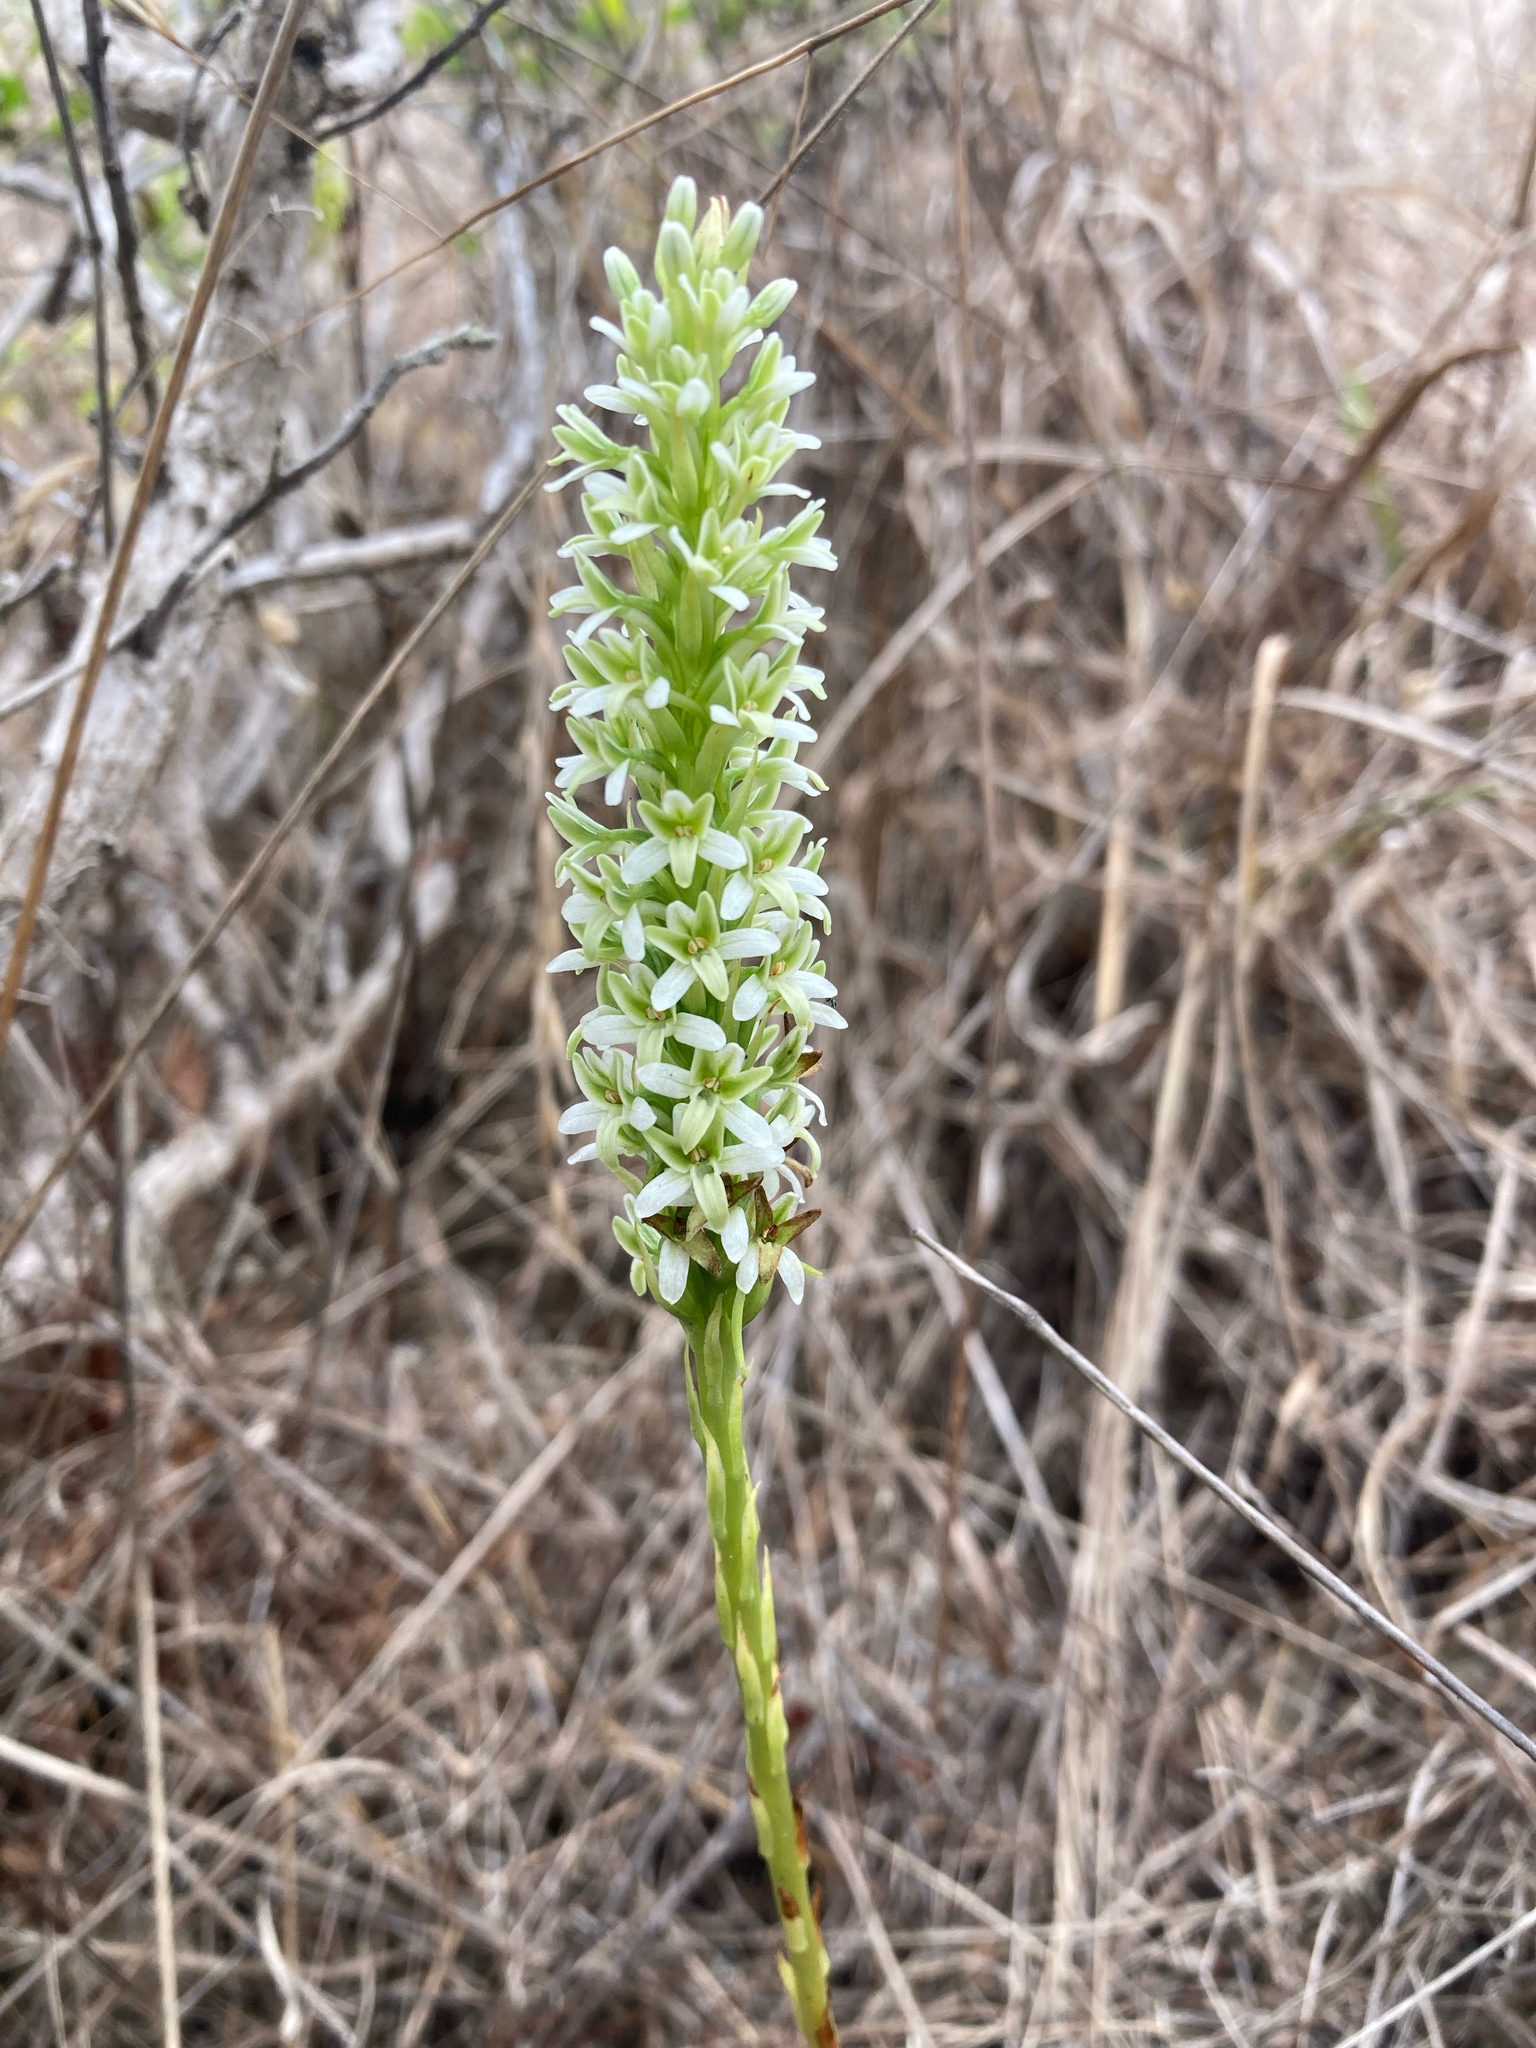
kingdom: Plantae
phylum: Tracheophyta
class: Liliopsida
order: Asparagales
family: Orchidaceae
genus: Platanthera
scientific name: Platanthera elegans
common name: Coast piperia
